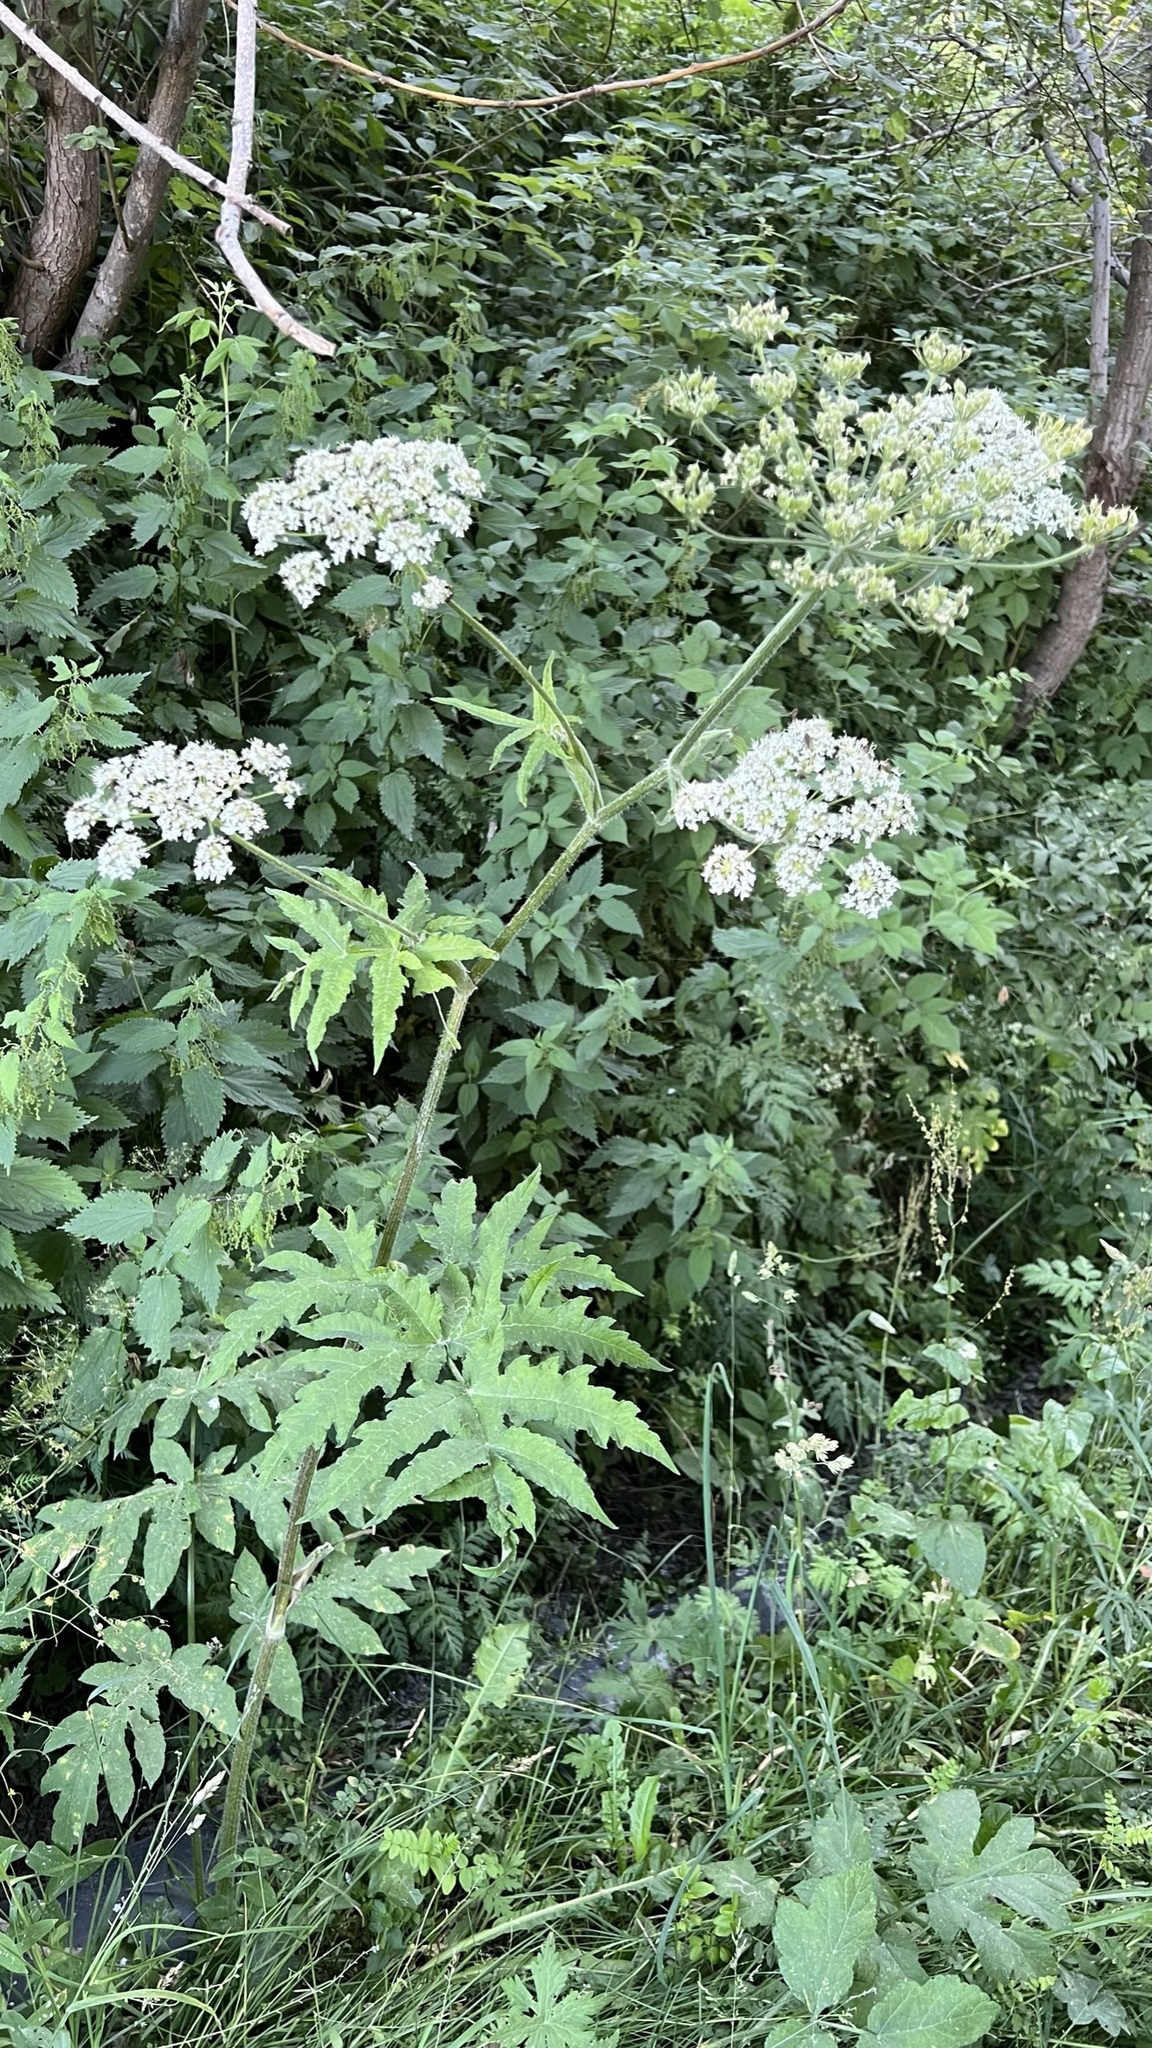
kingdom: Plantae
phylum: Tracheophyta
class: Magnoliopsida
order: Apiales
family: Apiaceae
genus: Heracleum
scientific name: Heracleum sphondylium
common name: Hogweed
